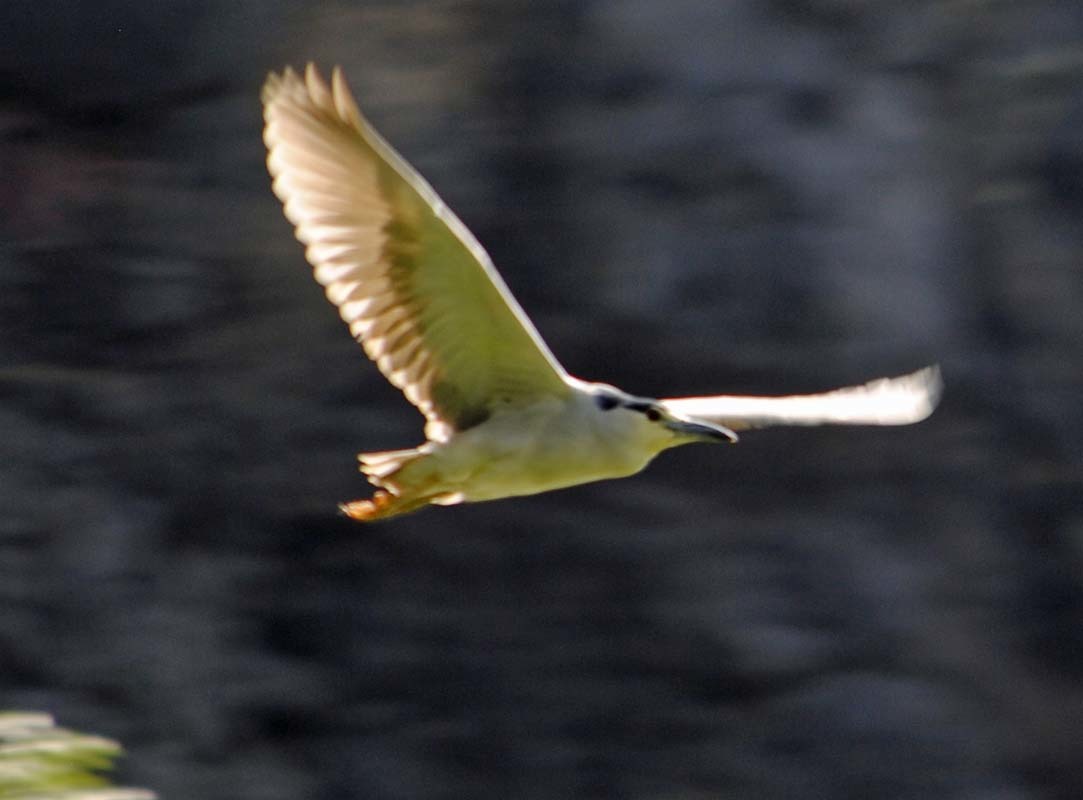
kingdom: Animalia
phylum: Chordata
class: Aves
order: Pelecaniformes
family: Ardeidae
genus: Nycticorax
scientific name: Nycticorax nycticorax
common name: Black-crowned night heron
